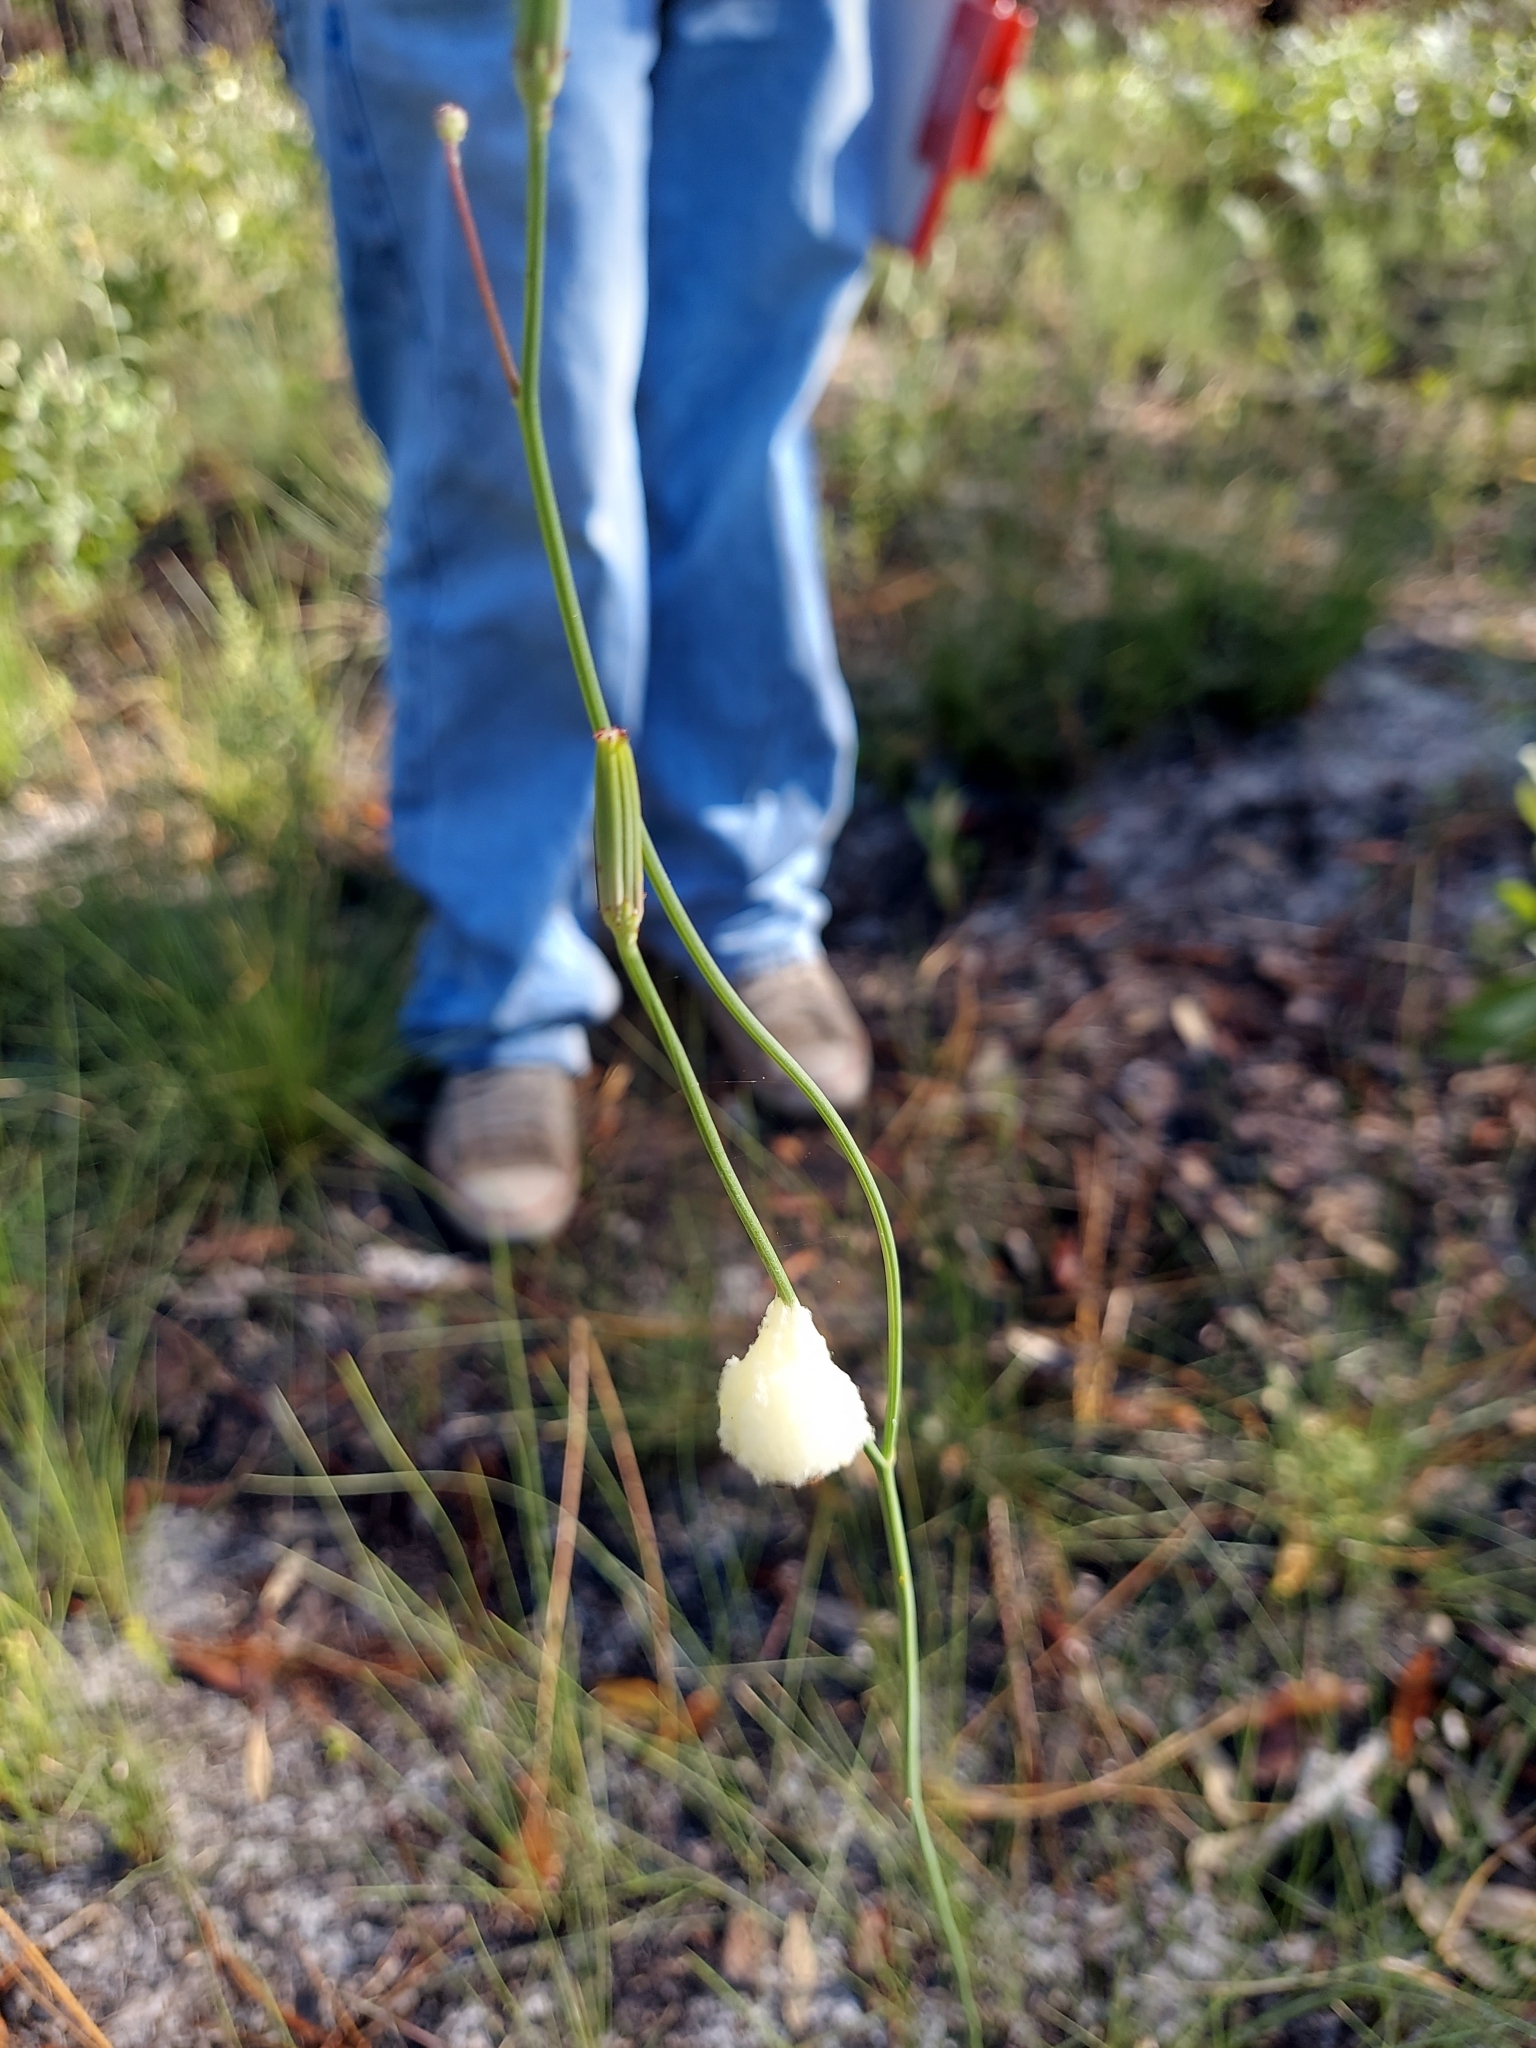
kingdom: Plantae
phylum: Tracheophyta
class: Magnoliopsida
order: Asterales
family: Asteraceae
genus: Lygodesmia
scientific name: Lygodesmia aphylla
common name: Rose-rush
